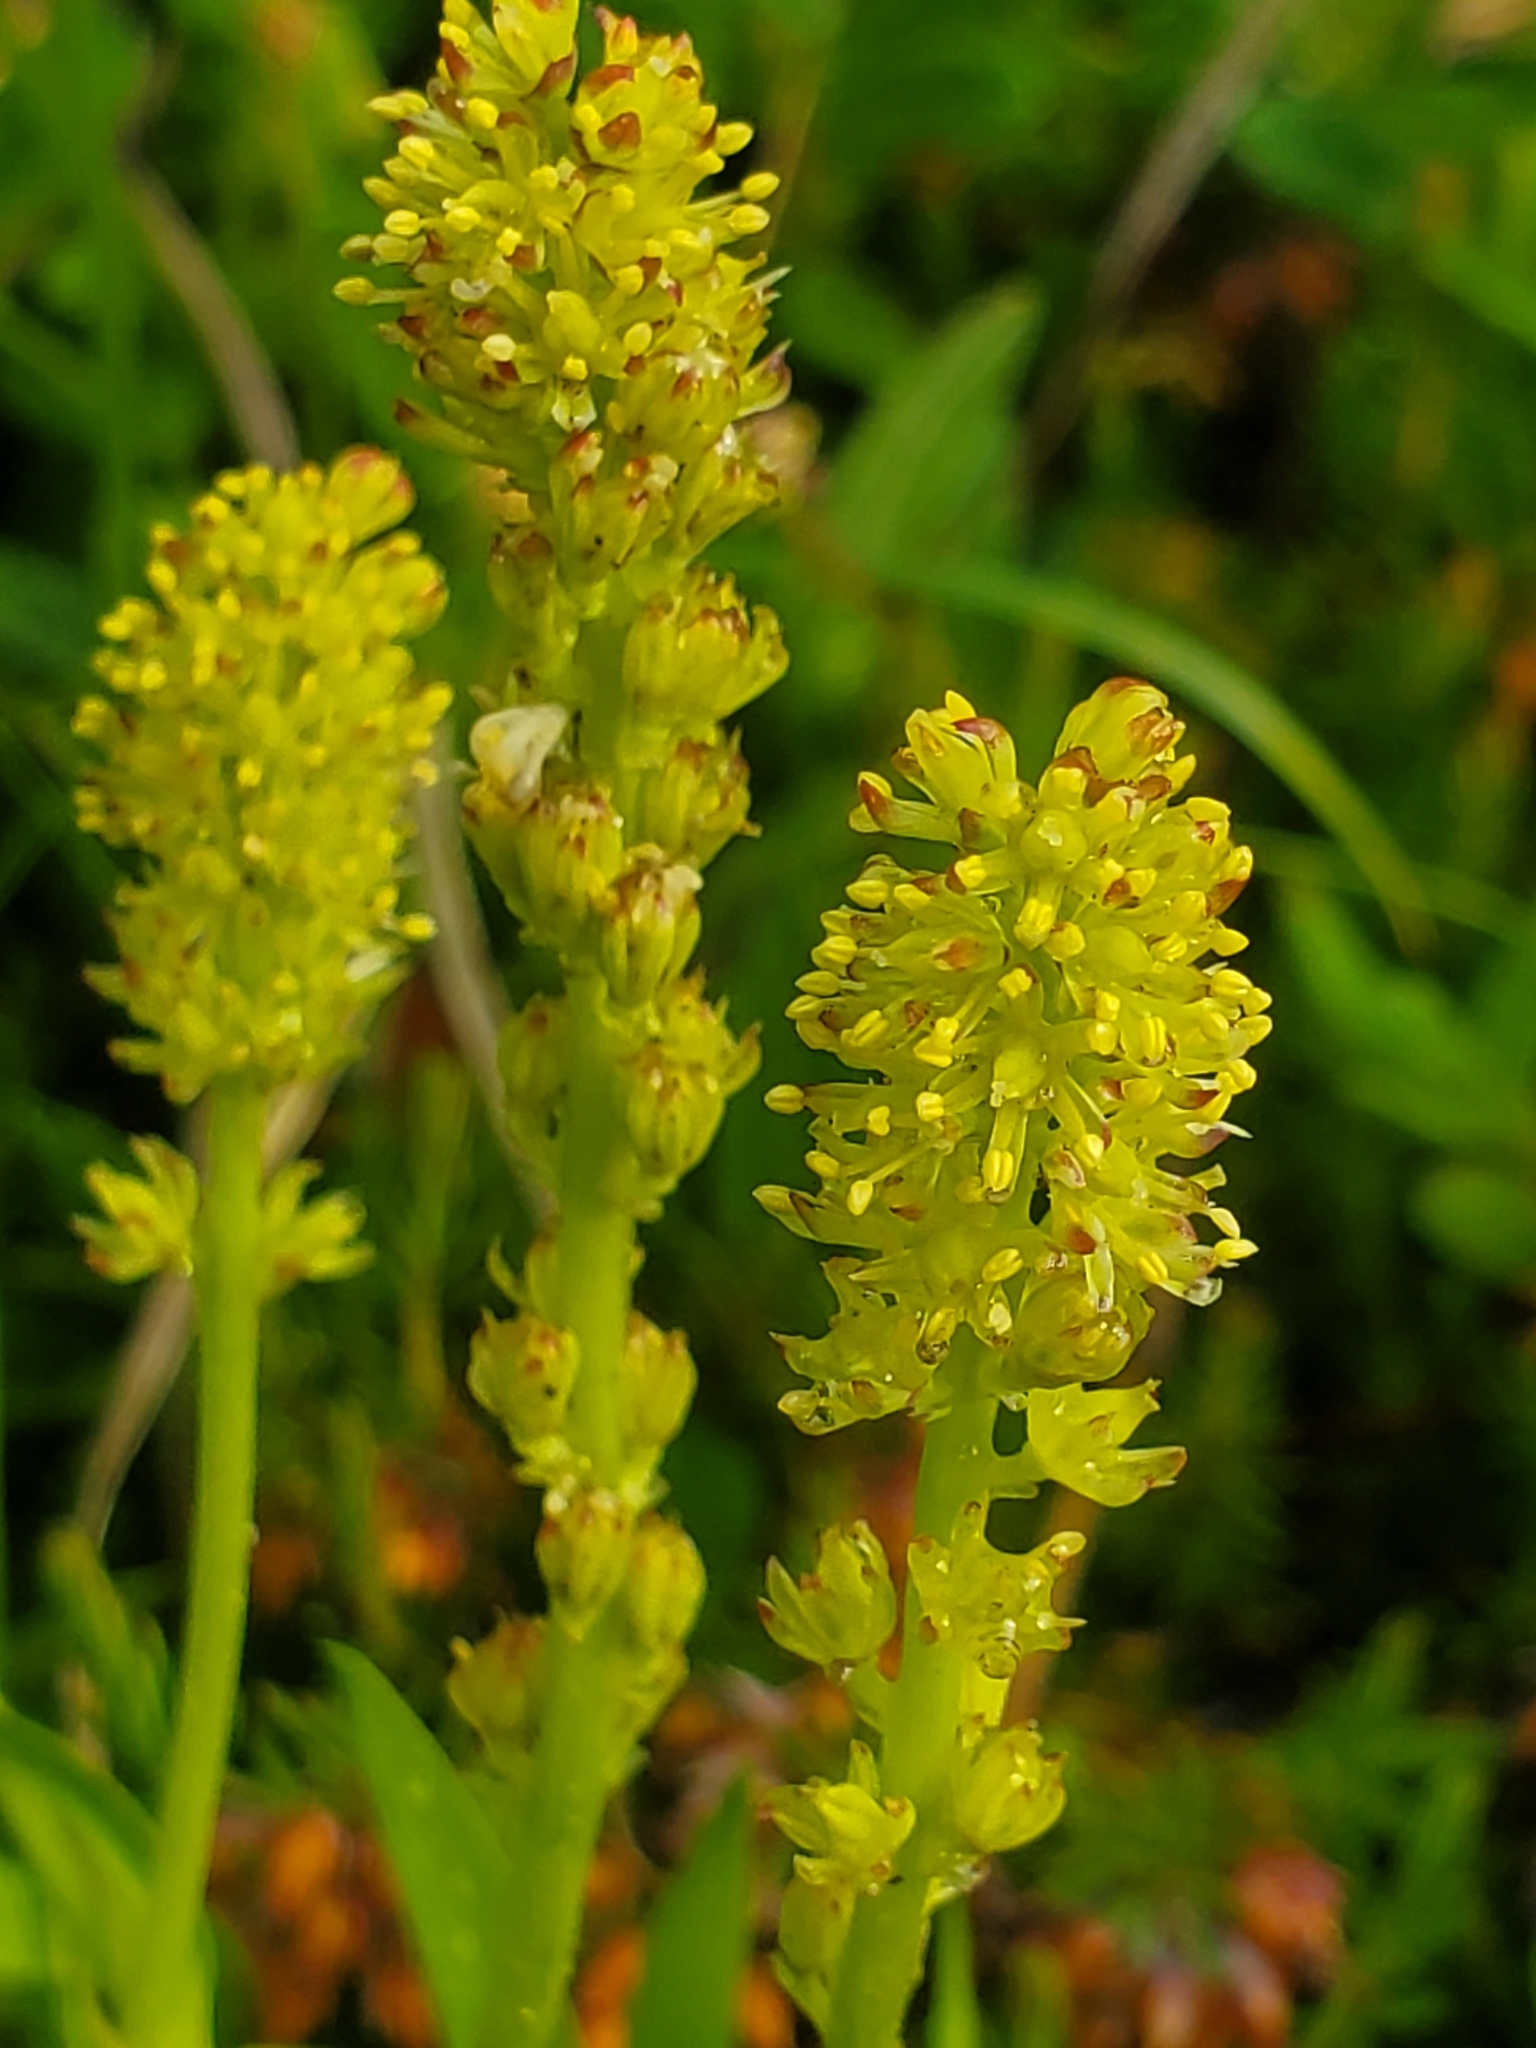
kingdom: Plantae
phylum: Tracheophyta
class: Liliopsida
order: Alismatales
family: Tofieldiaceae
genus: Tofieldia
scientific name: Tofieldia calyculata
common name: German-asphodel
